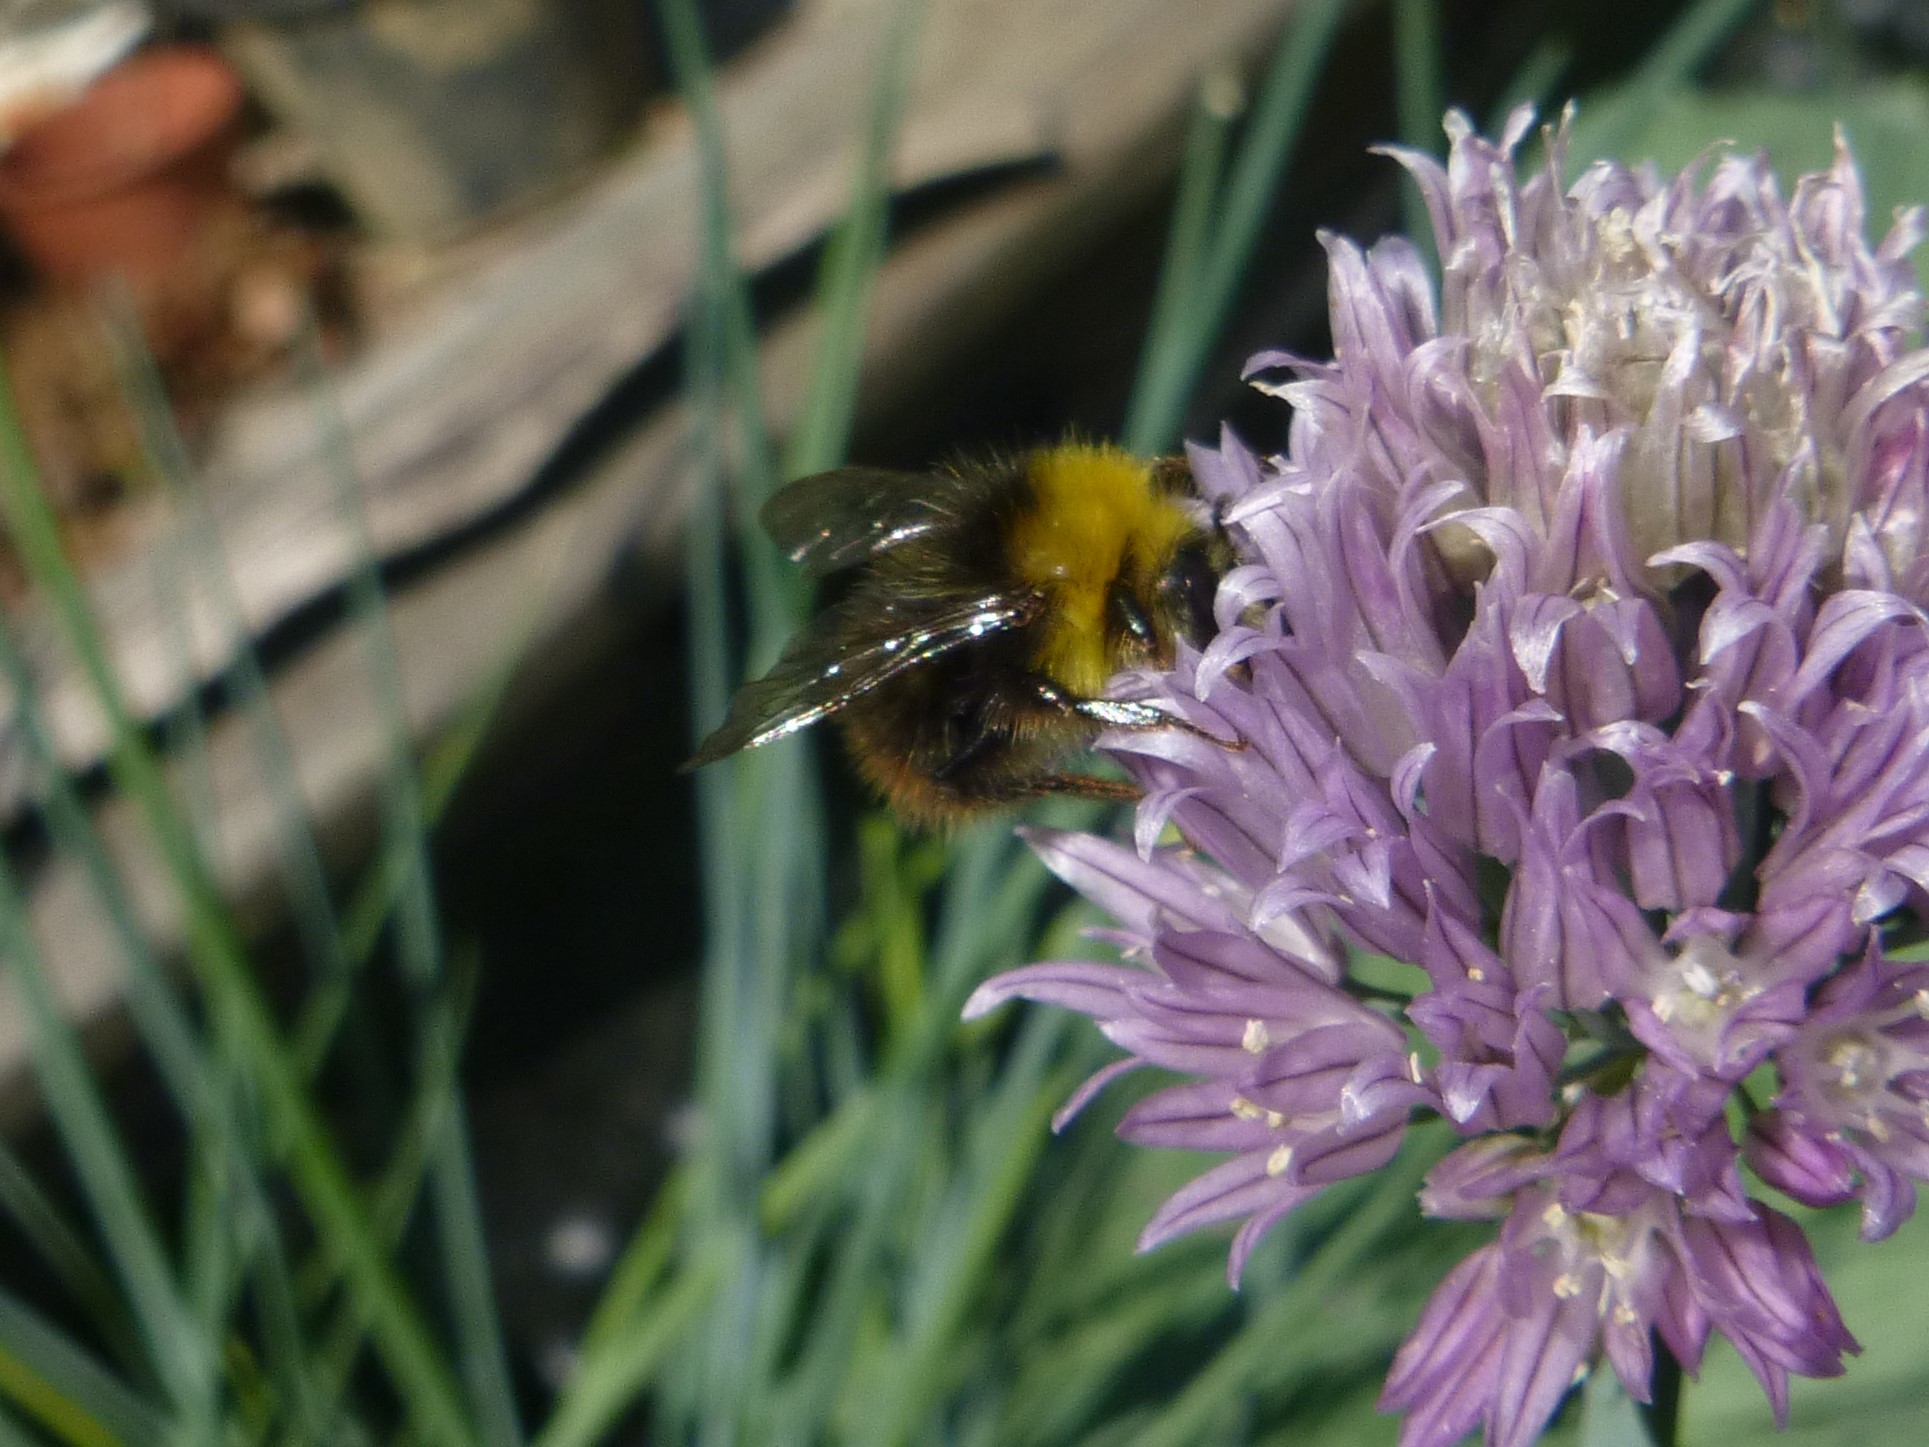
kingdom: Animalia
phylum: Arthropoda
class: Insecta
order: Hymenoptera
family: Apidae
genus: Bombus
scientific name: Bombus pratorum
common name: Early humble-bee
